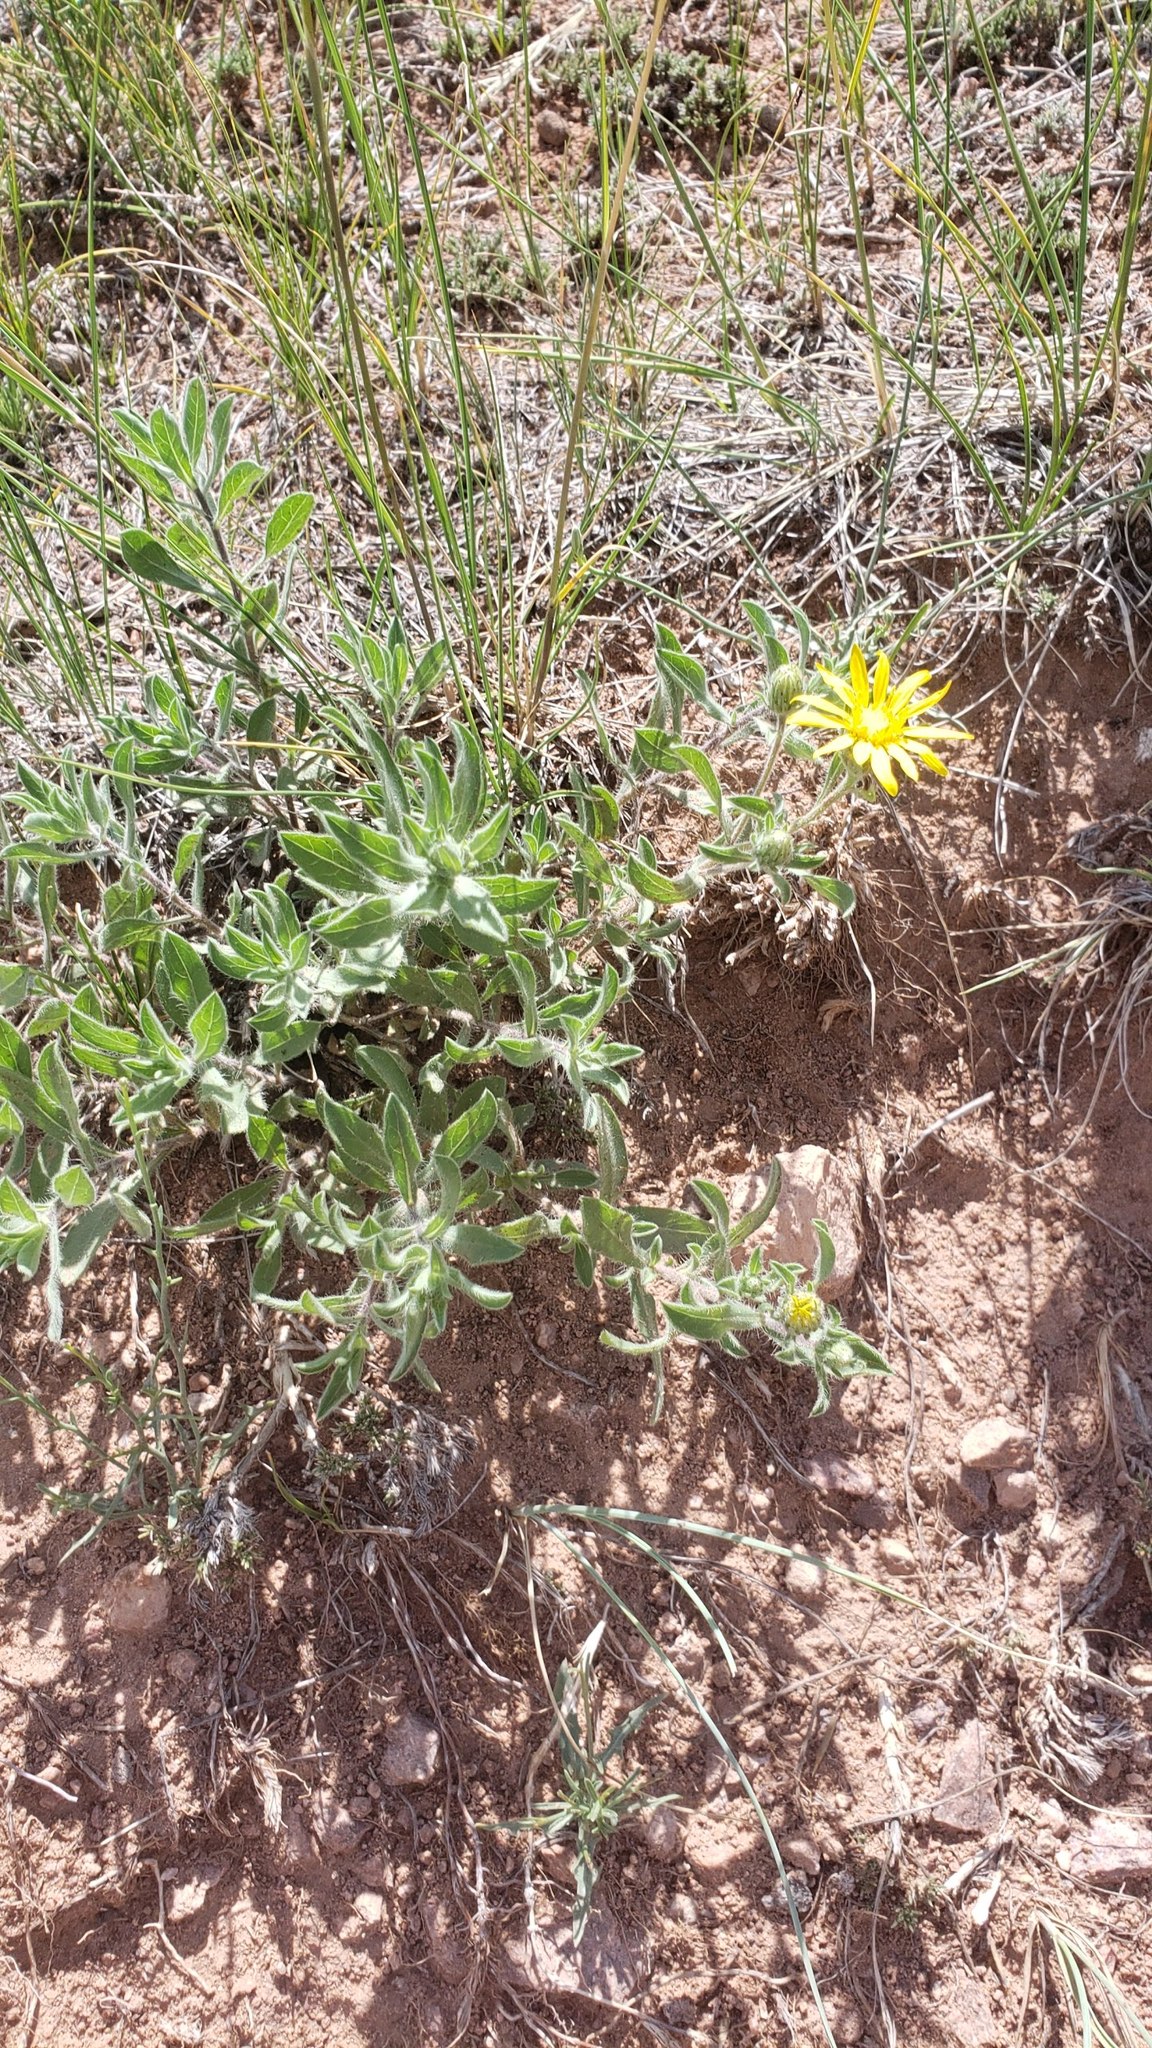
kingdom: Plantae
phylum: Tracheophyta
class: Magnoliopsida
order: Asterales
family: Asteraceae
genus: Heterotheca
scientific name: Heterotheca hirsutissima
